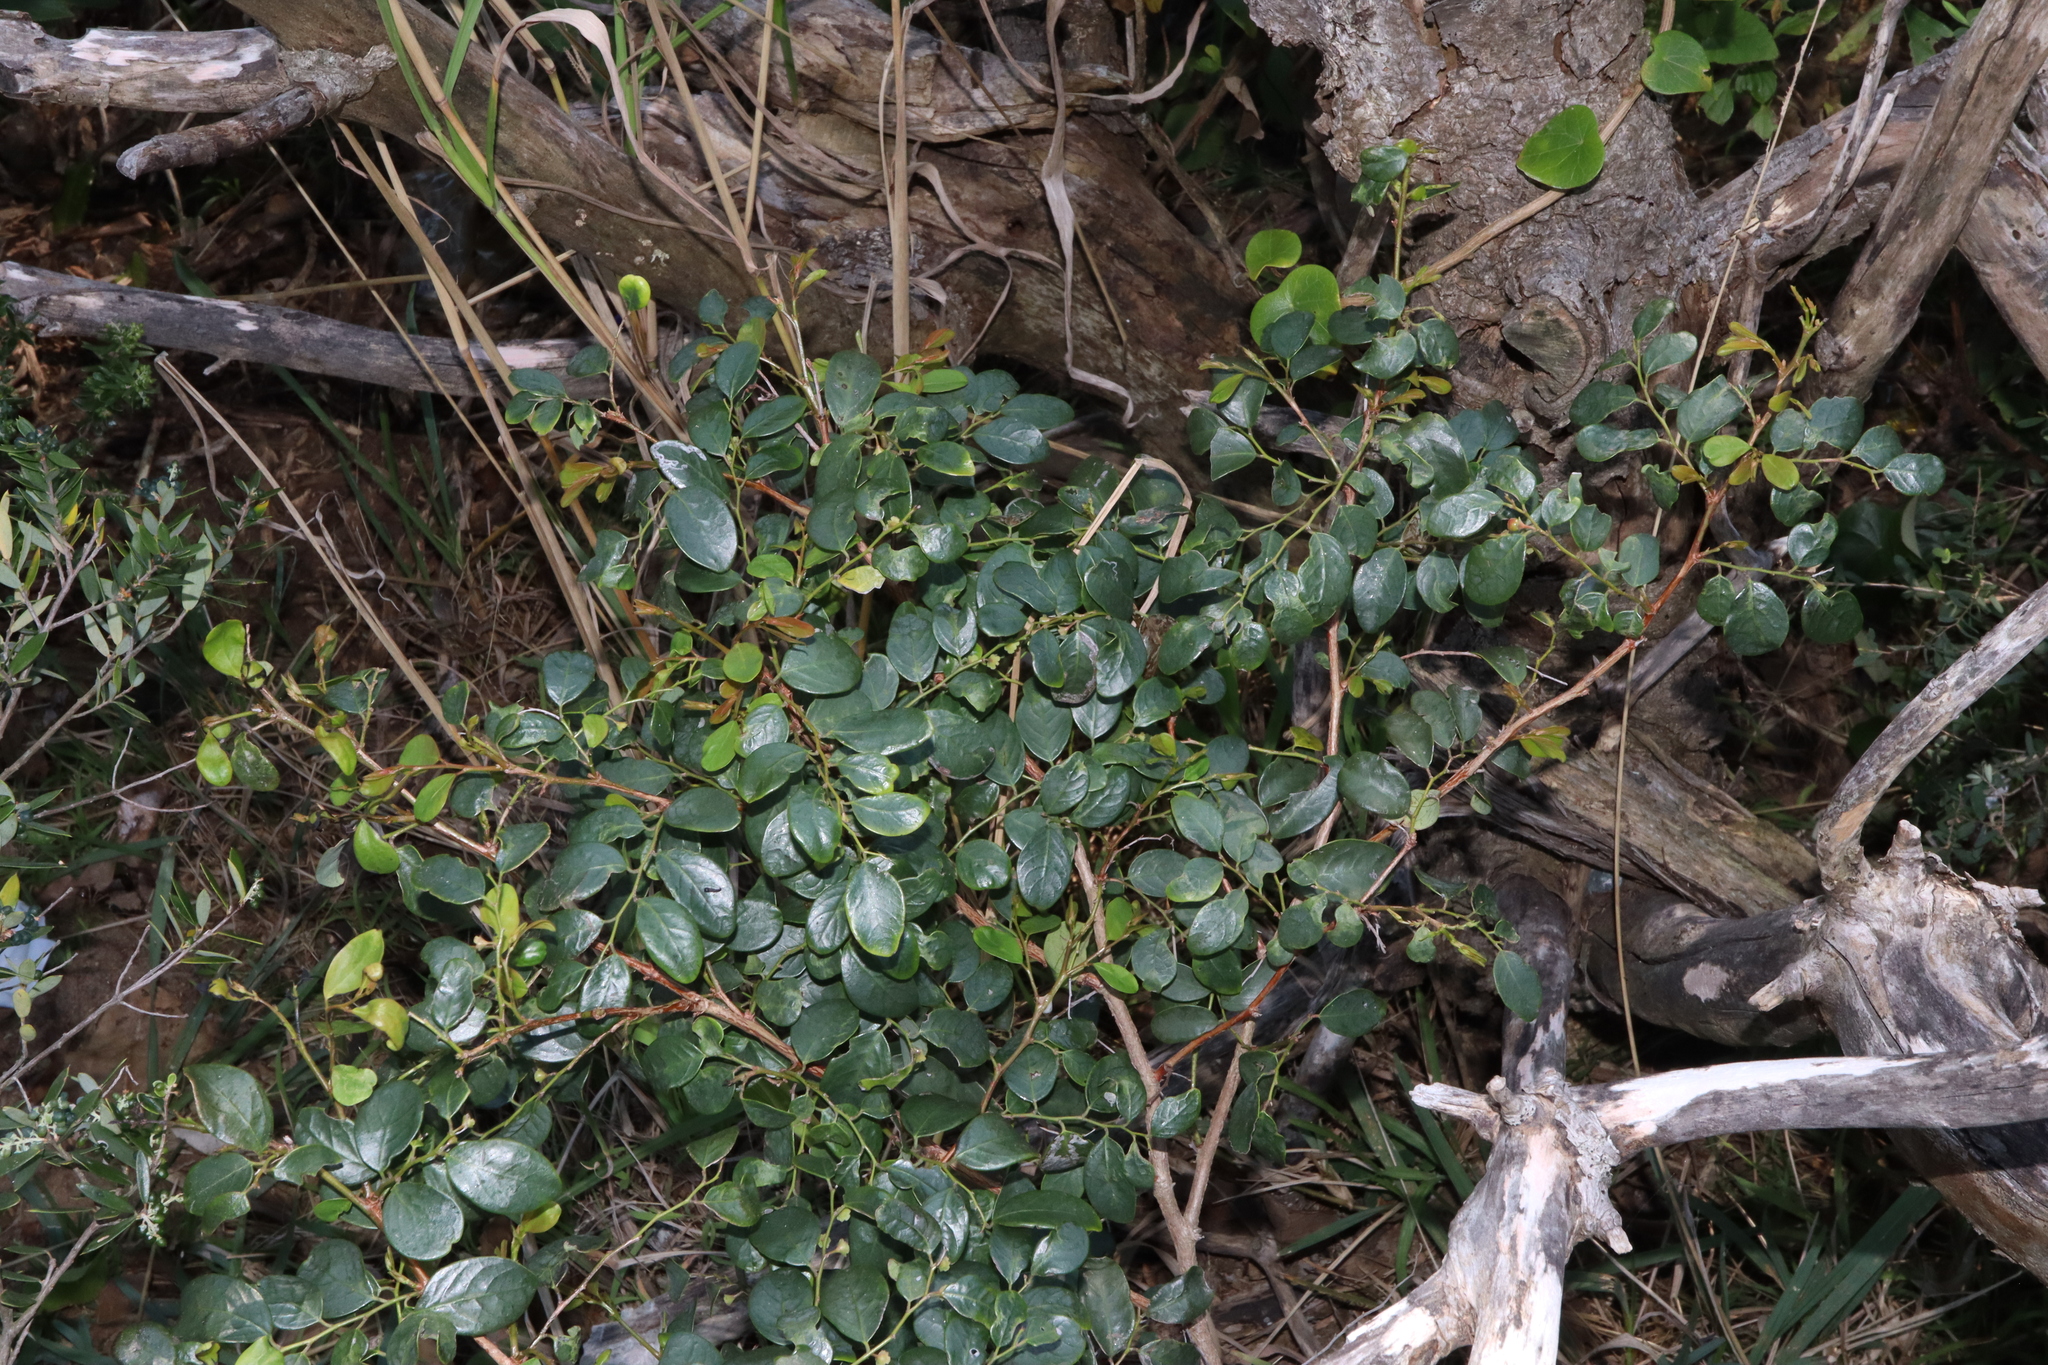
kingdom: Plantae
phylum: Tracheophyta
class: Magnoliopsida
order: Malpighiales
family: Phyllanthaceae
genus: Breynia
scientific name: Breynia oblongifolia
